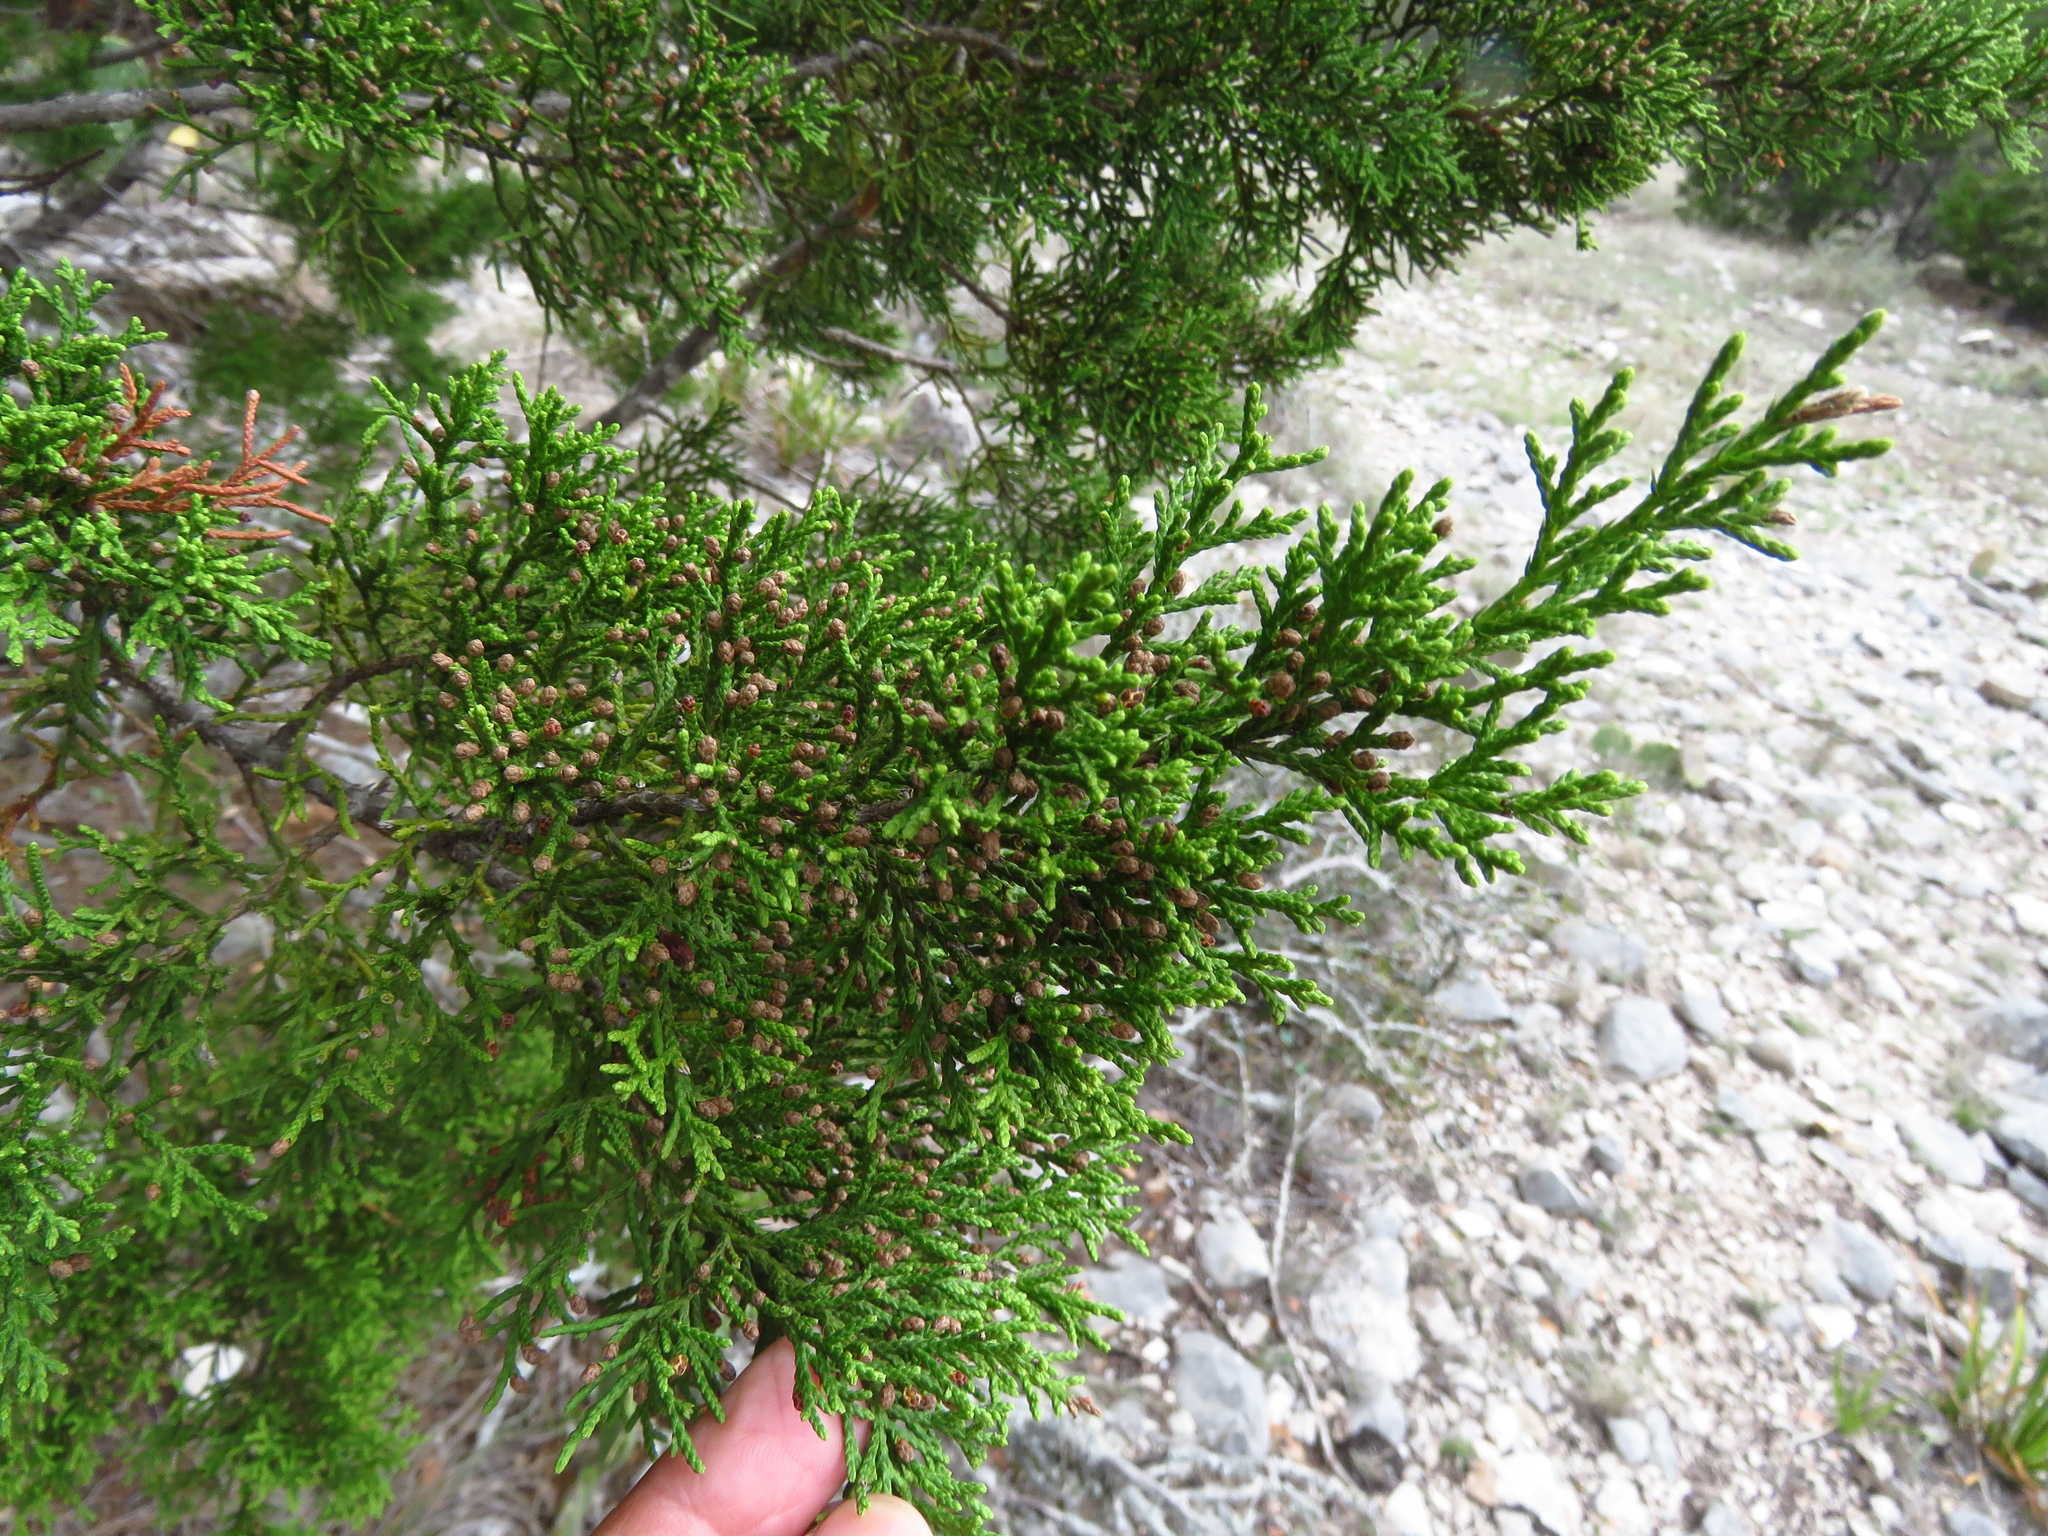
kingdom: Plantae
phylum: Tracheophyta
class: Pinopsida
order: Pinales
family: Cupressaceae
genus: Juniperus
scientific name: Juniperus ashei
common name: Mexican juniper
